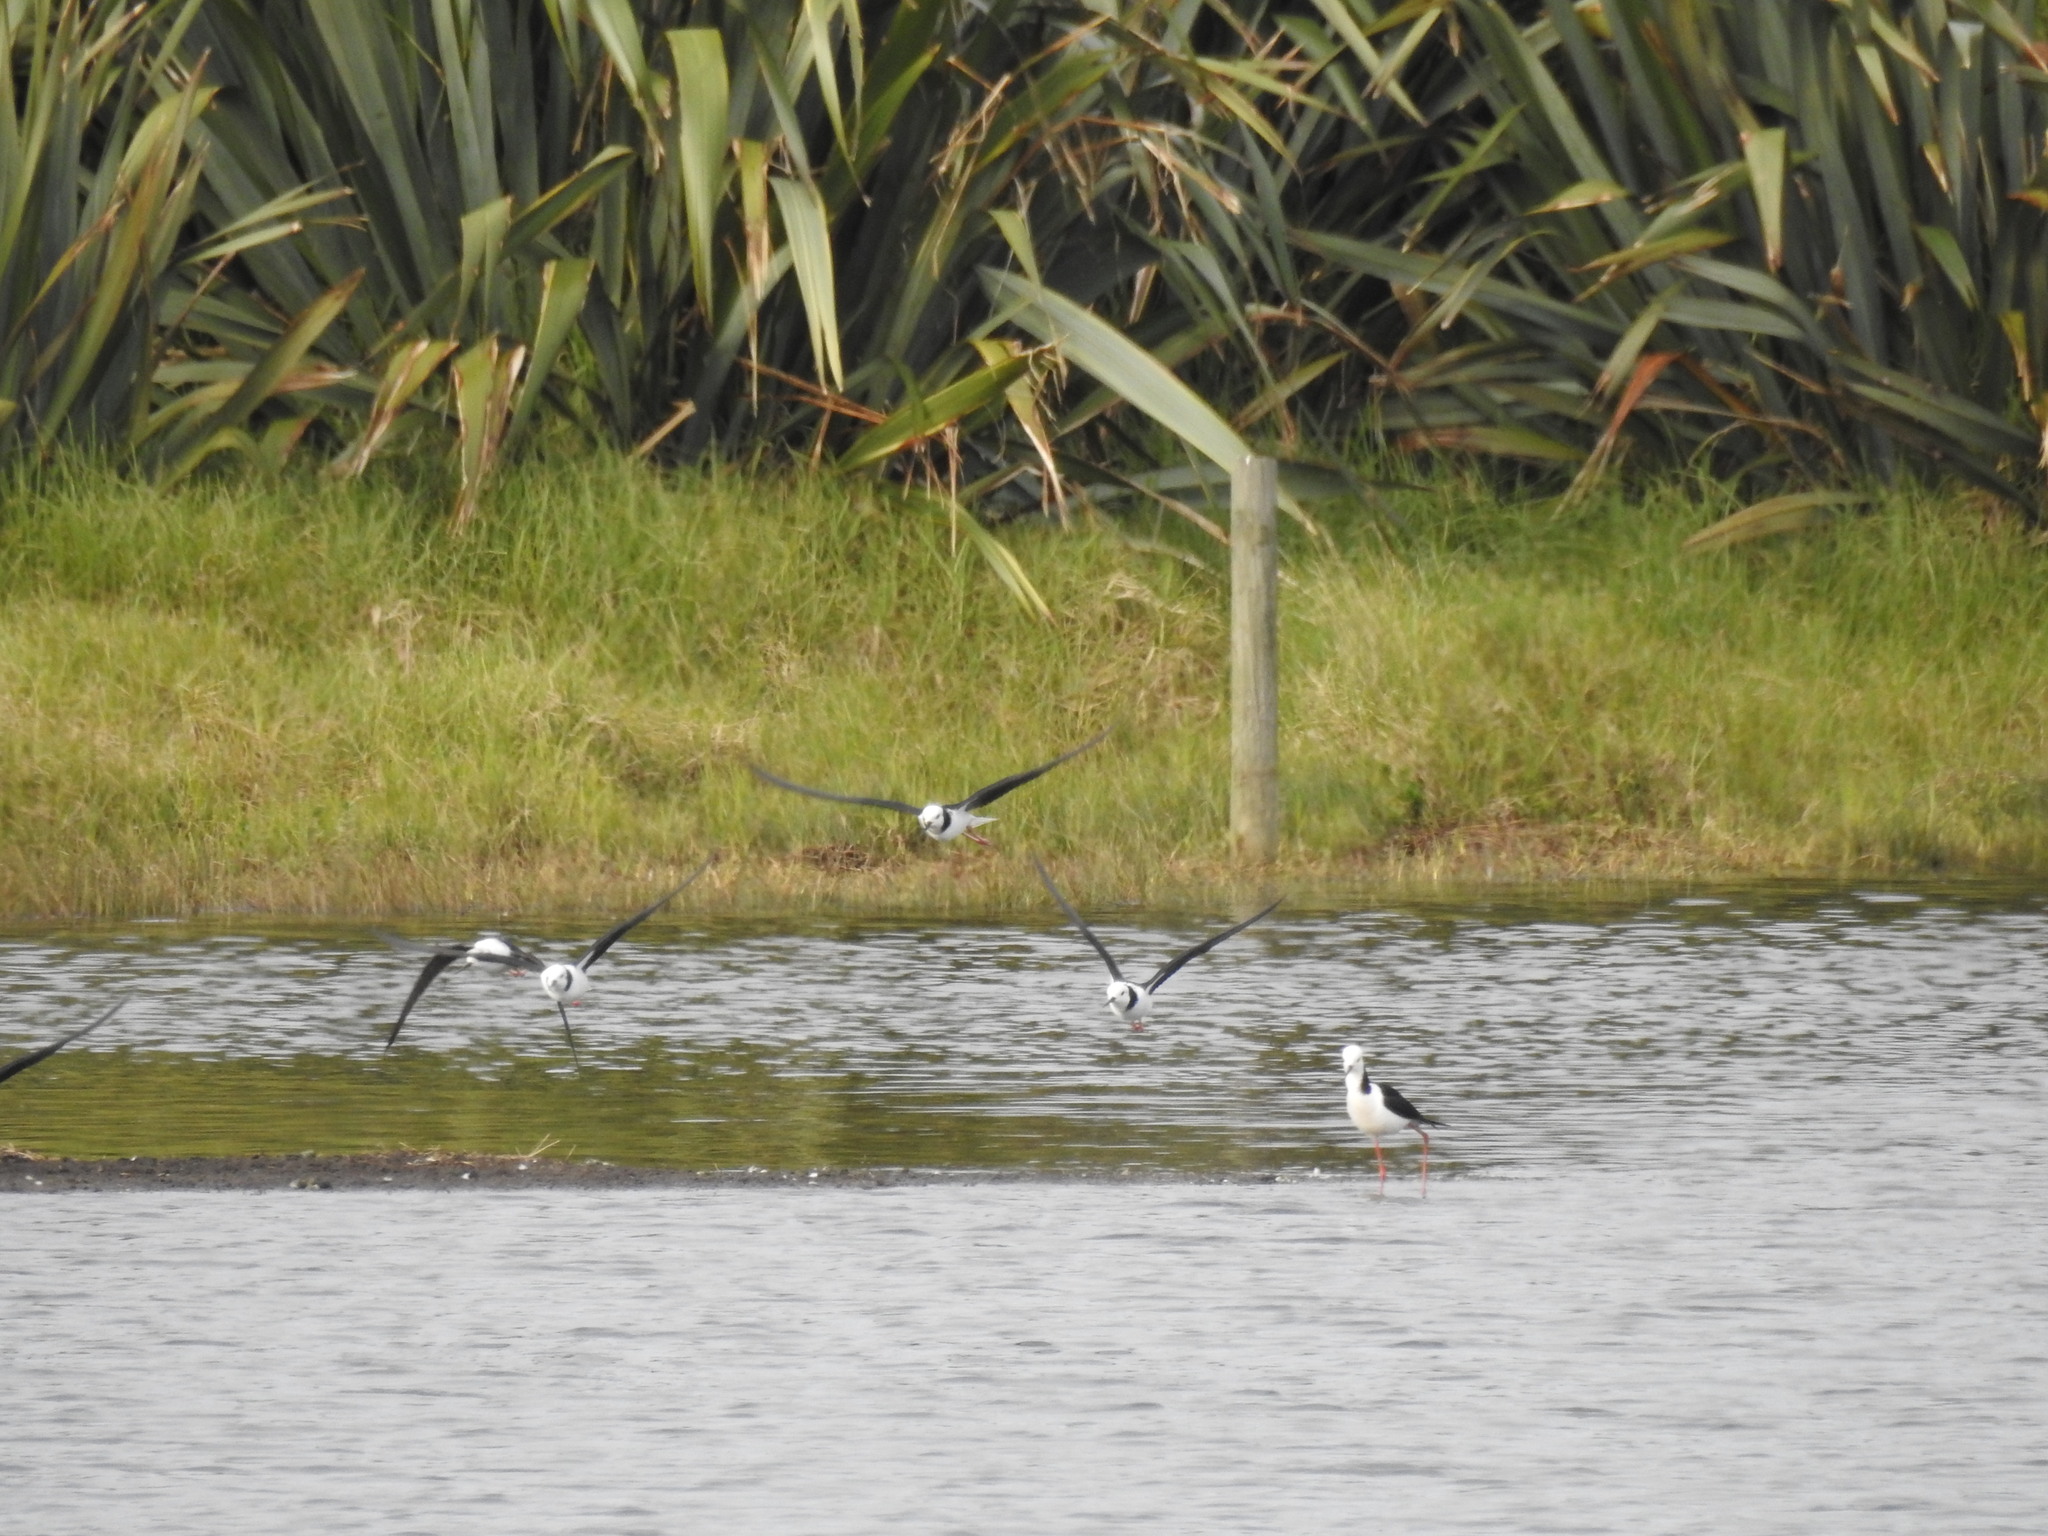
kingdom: Animalia
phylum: Chordata
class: Aves
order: Charadriiformes
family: Recurvirostridae
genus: Himantopus
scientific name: Himantopus leucocephalus
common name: White-headed stilt
